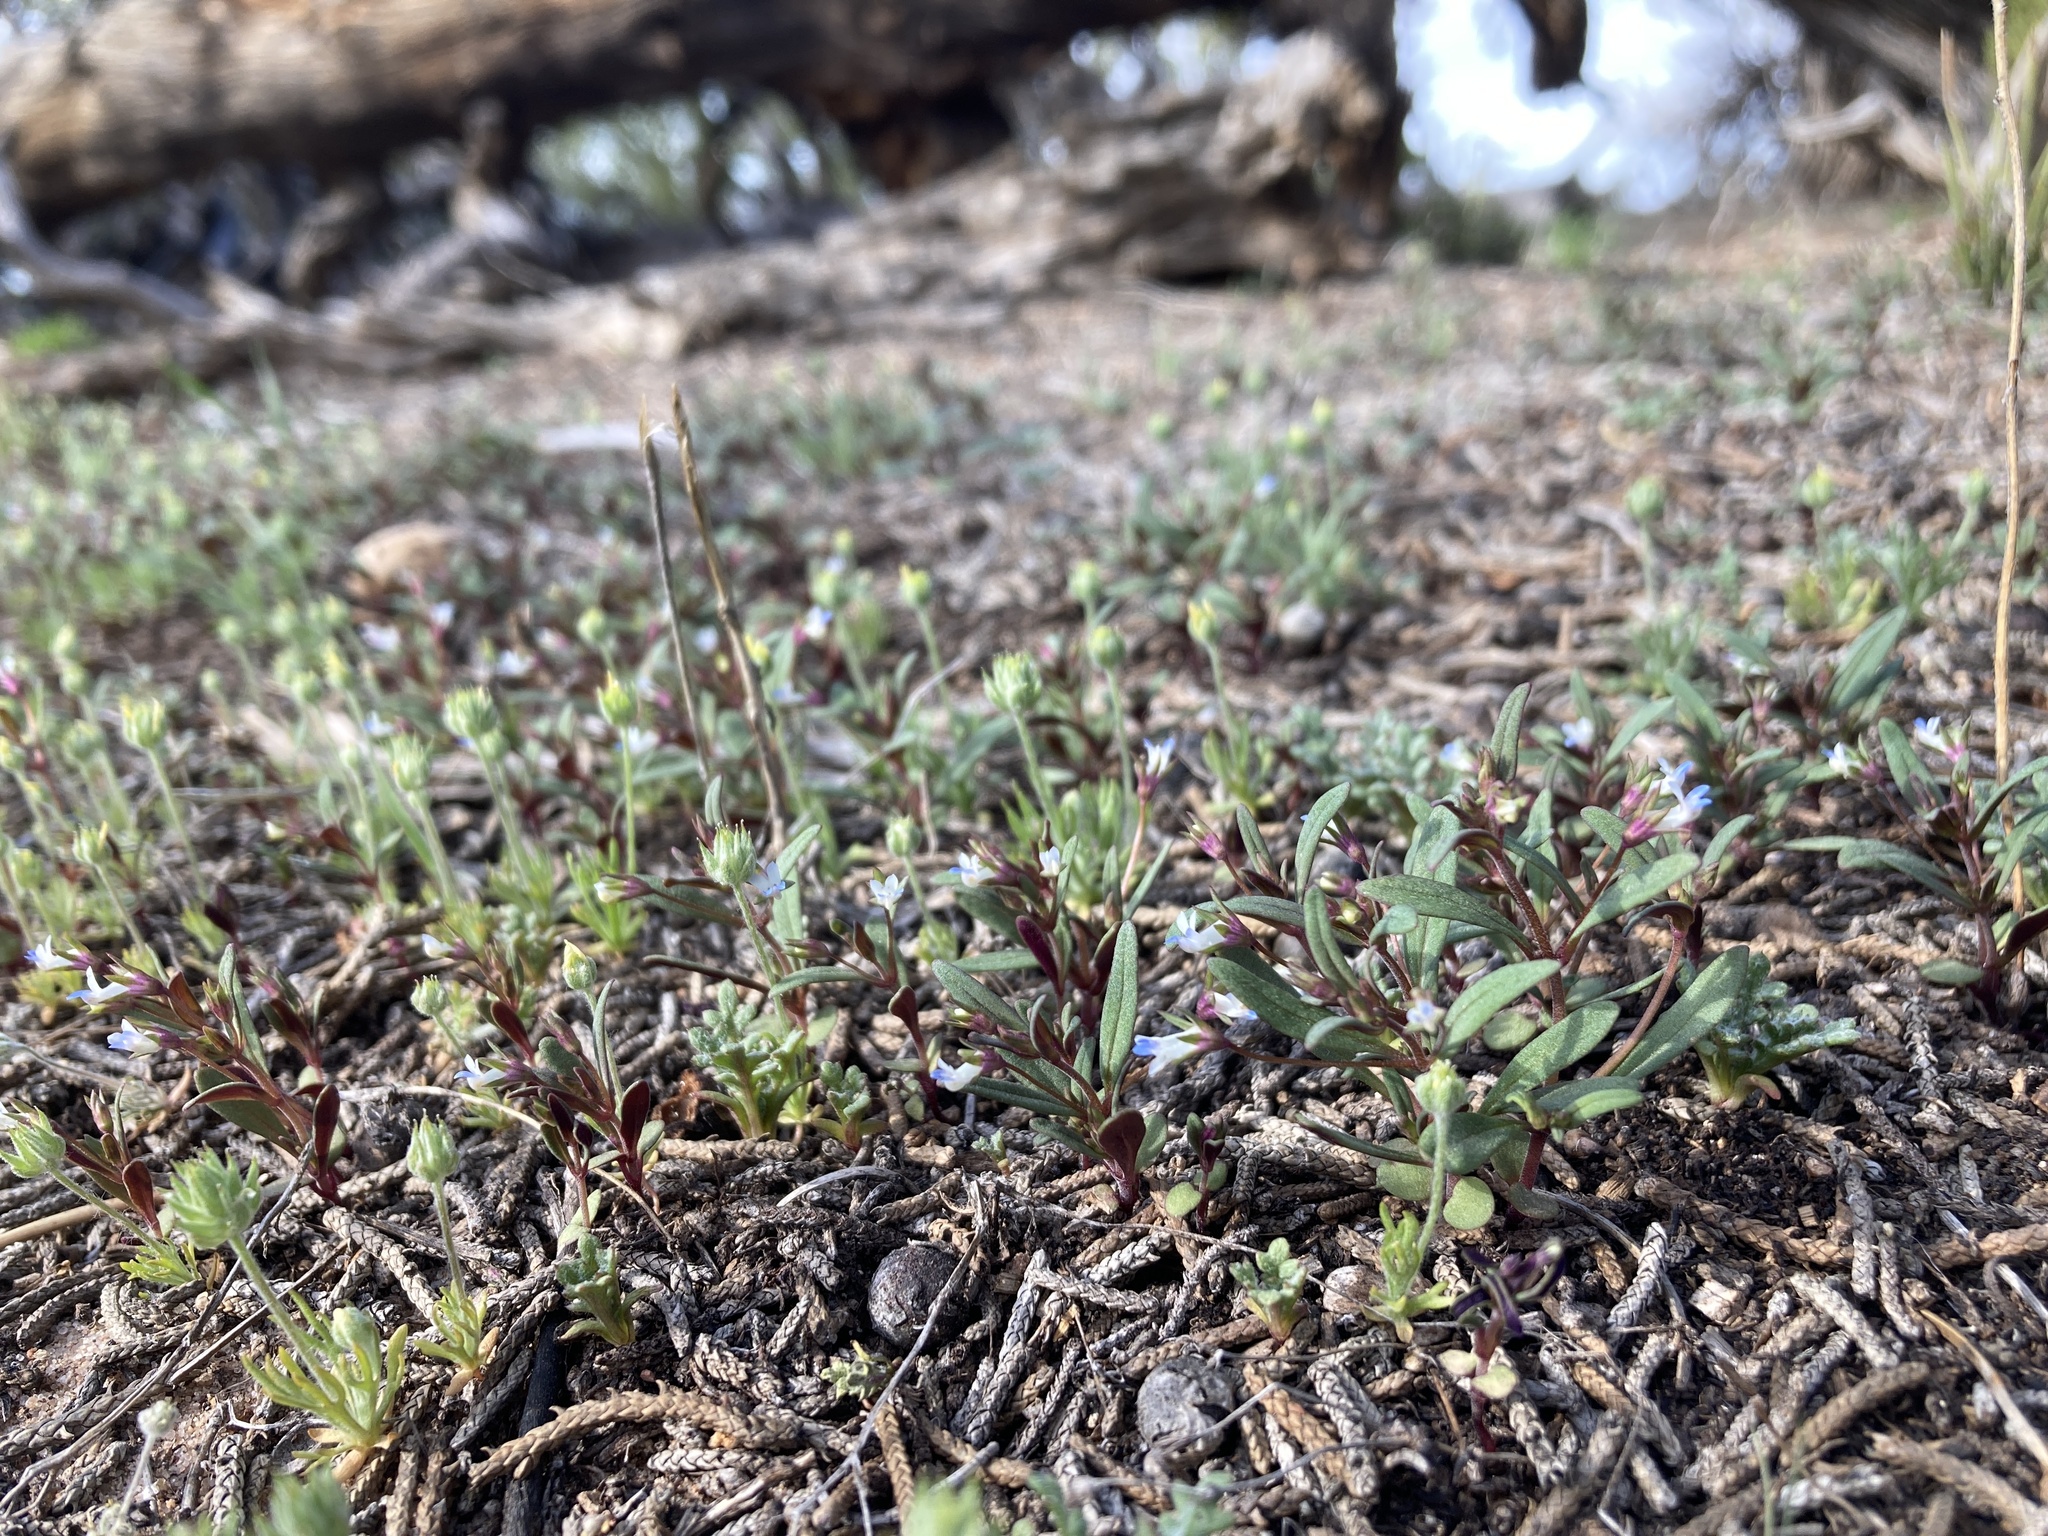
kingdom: Plantae
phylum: Tracheophyta
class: Magnoliopsida
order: Lamiales
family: Plantaginaceae
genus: Collinsia
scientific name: Collinsia parviflora
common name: Blue-lips
